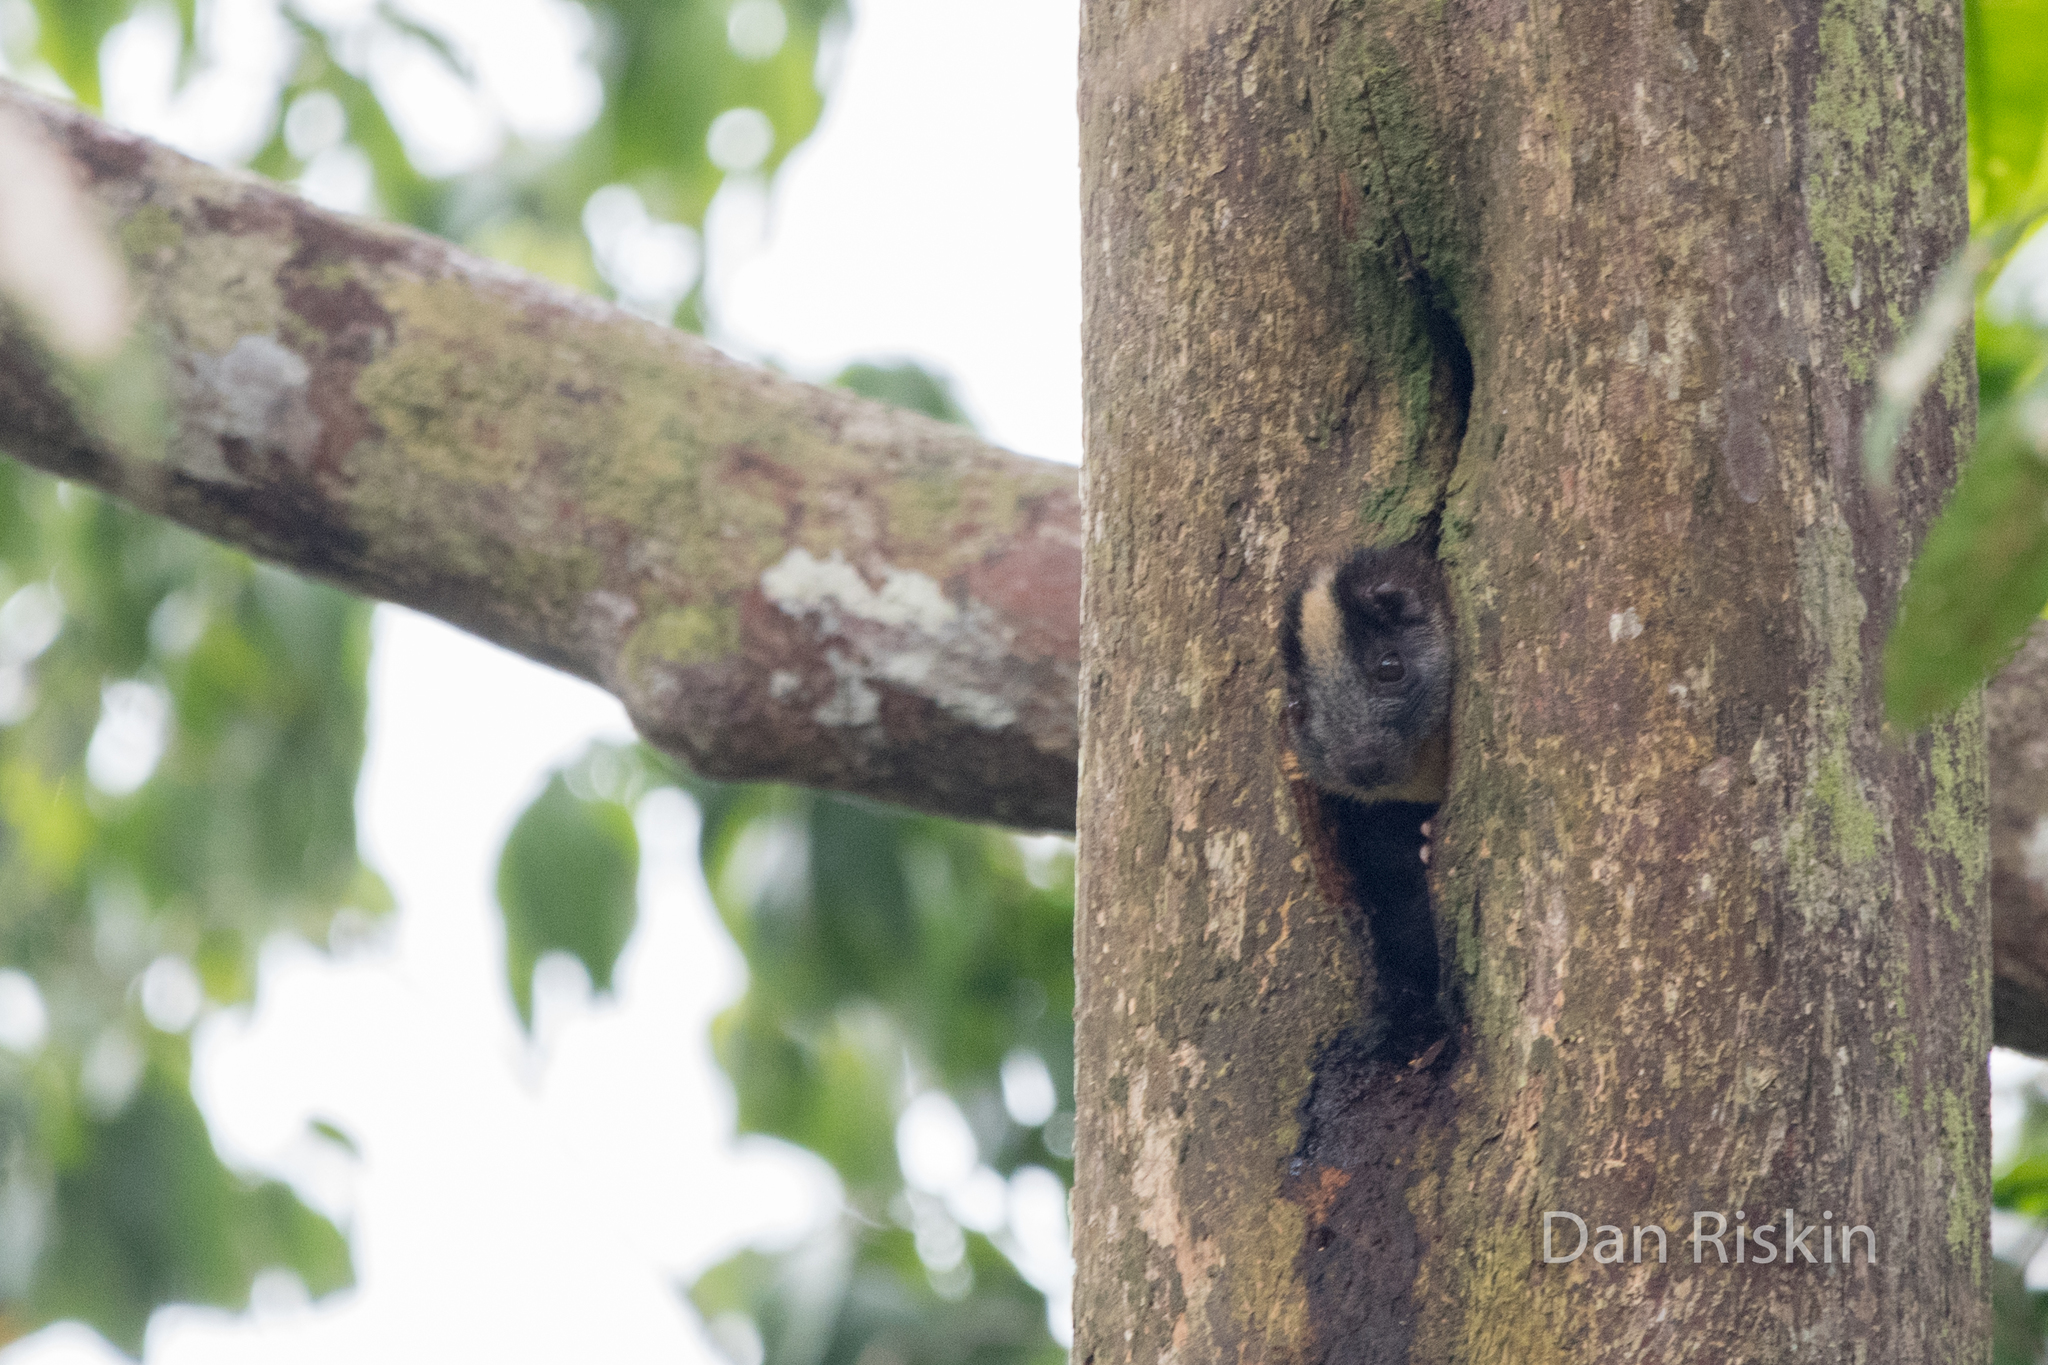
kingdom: Animalia
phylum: Chordata
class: Mammalia
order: Rodentia
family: Echimyidae
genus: Isothrix
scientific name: Isothrix bistriata
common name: Yellow-crowned brush-tailed rat
